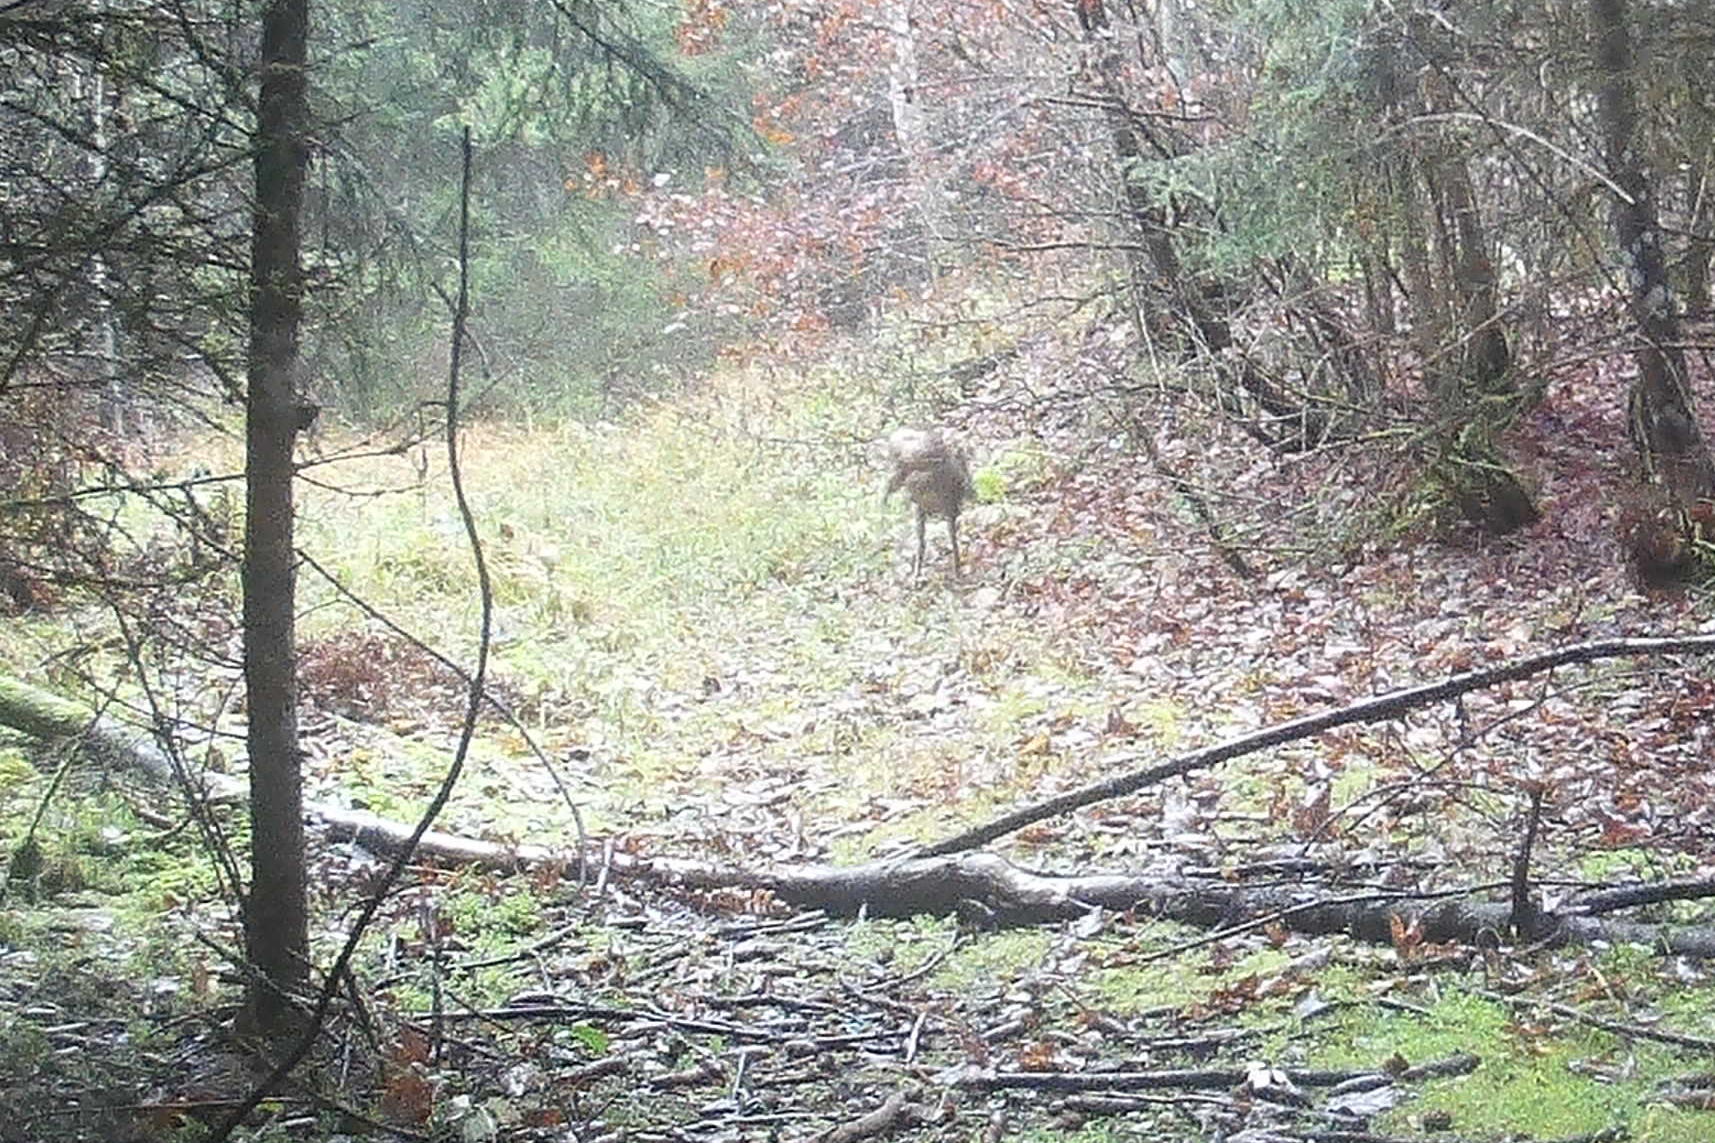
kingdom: Animalia
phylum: Chordata
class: Mammalia
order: Artiodactyla
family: Cervidae
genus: Capreolus
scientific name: Capreolus capreolus
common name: Western roe deer
